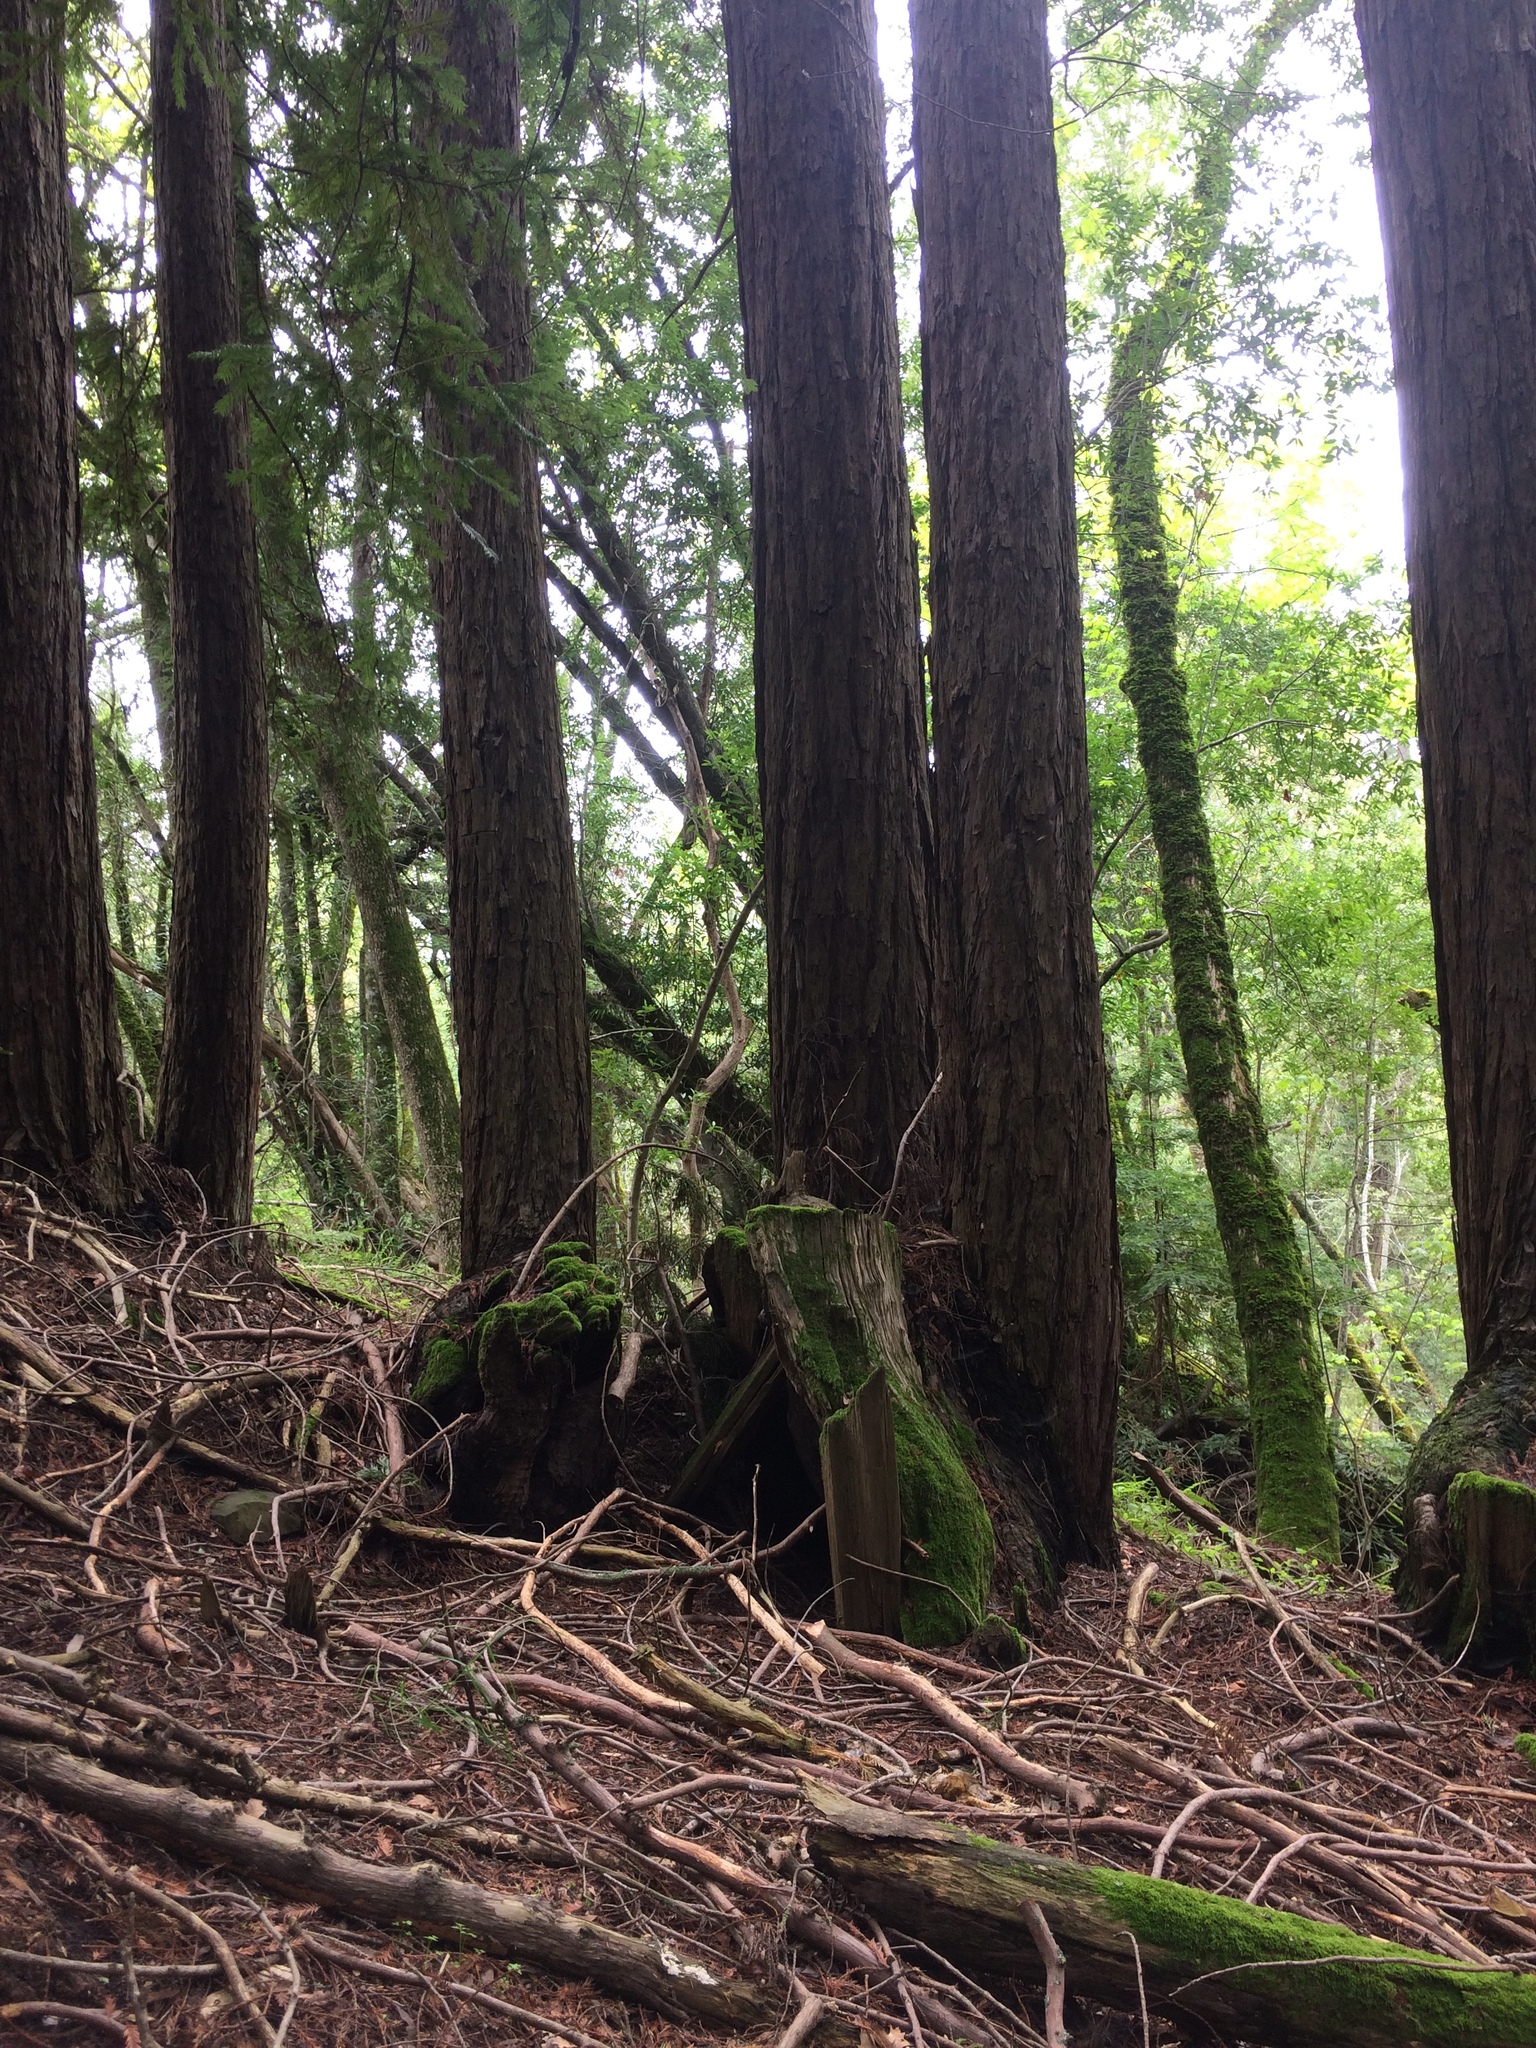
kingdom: Plantae
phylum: Tracheophyta
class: Pinopsida
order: Pinales
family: Cupressaceae
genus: Sequoia
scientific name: Sequoia sempervirens
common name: Coast redwood
